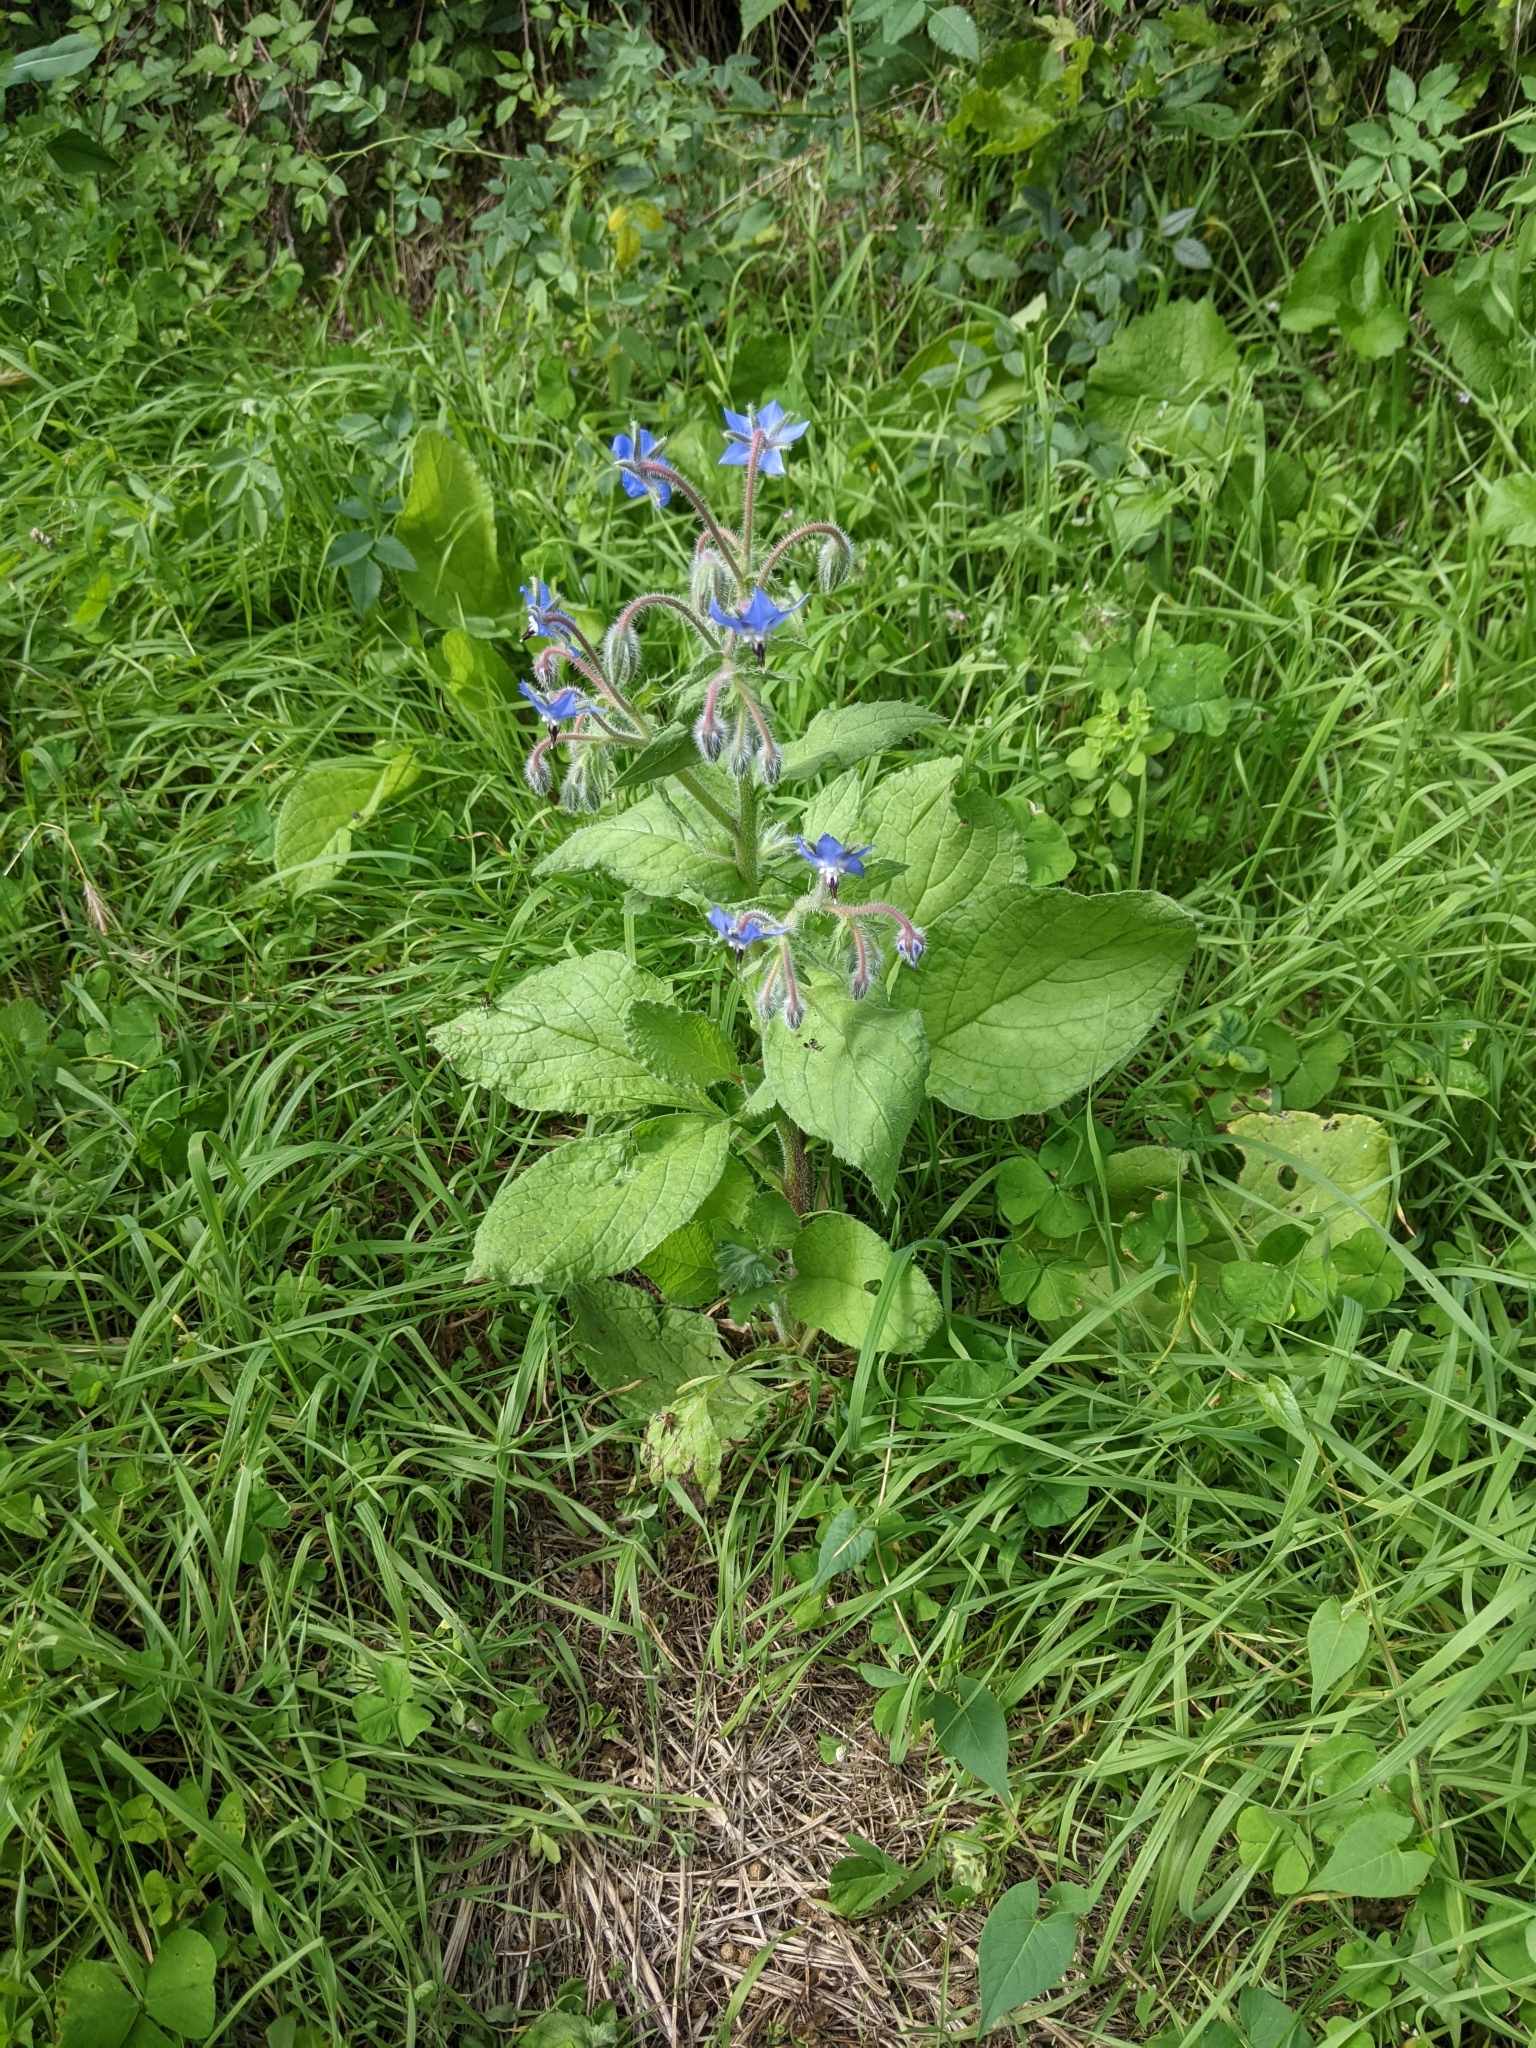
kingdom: Plantae
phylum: Tracheophyta
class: Magnoliopsida
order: Boraginales
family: Boraginaceae
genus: Borago
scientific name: Borago officinalis
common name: Borage
